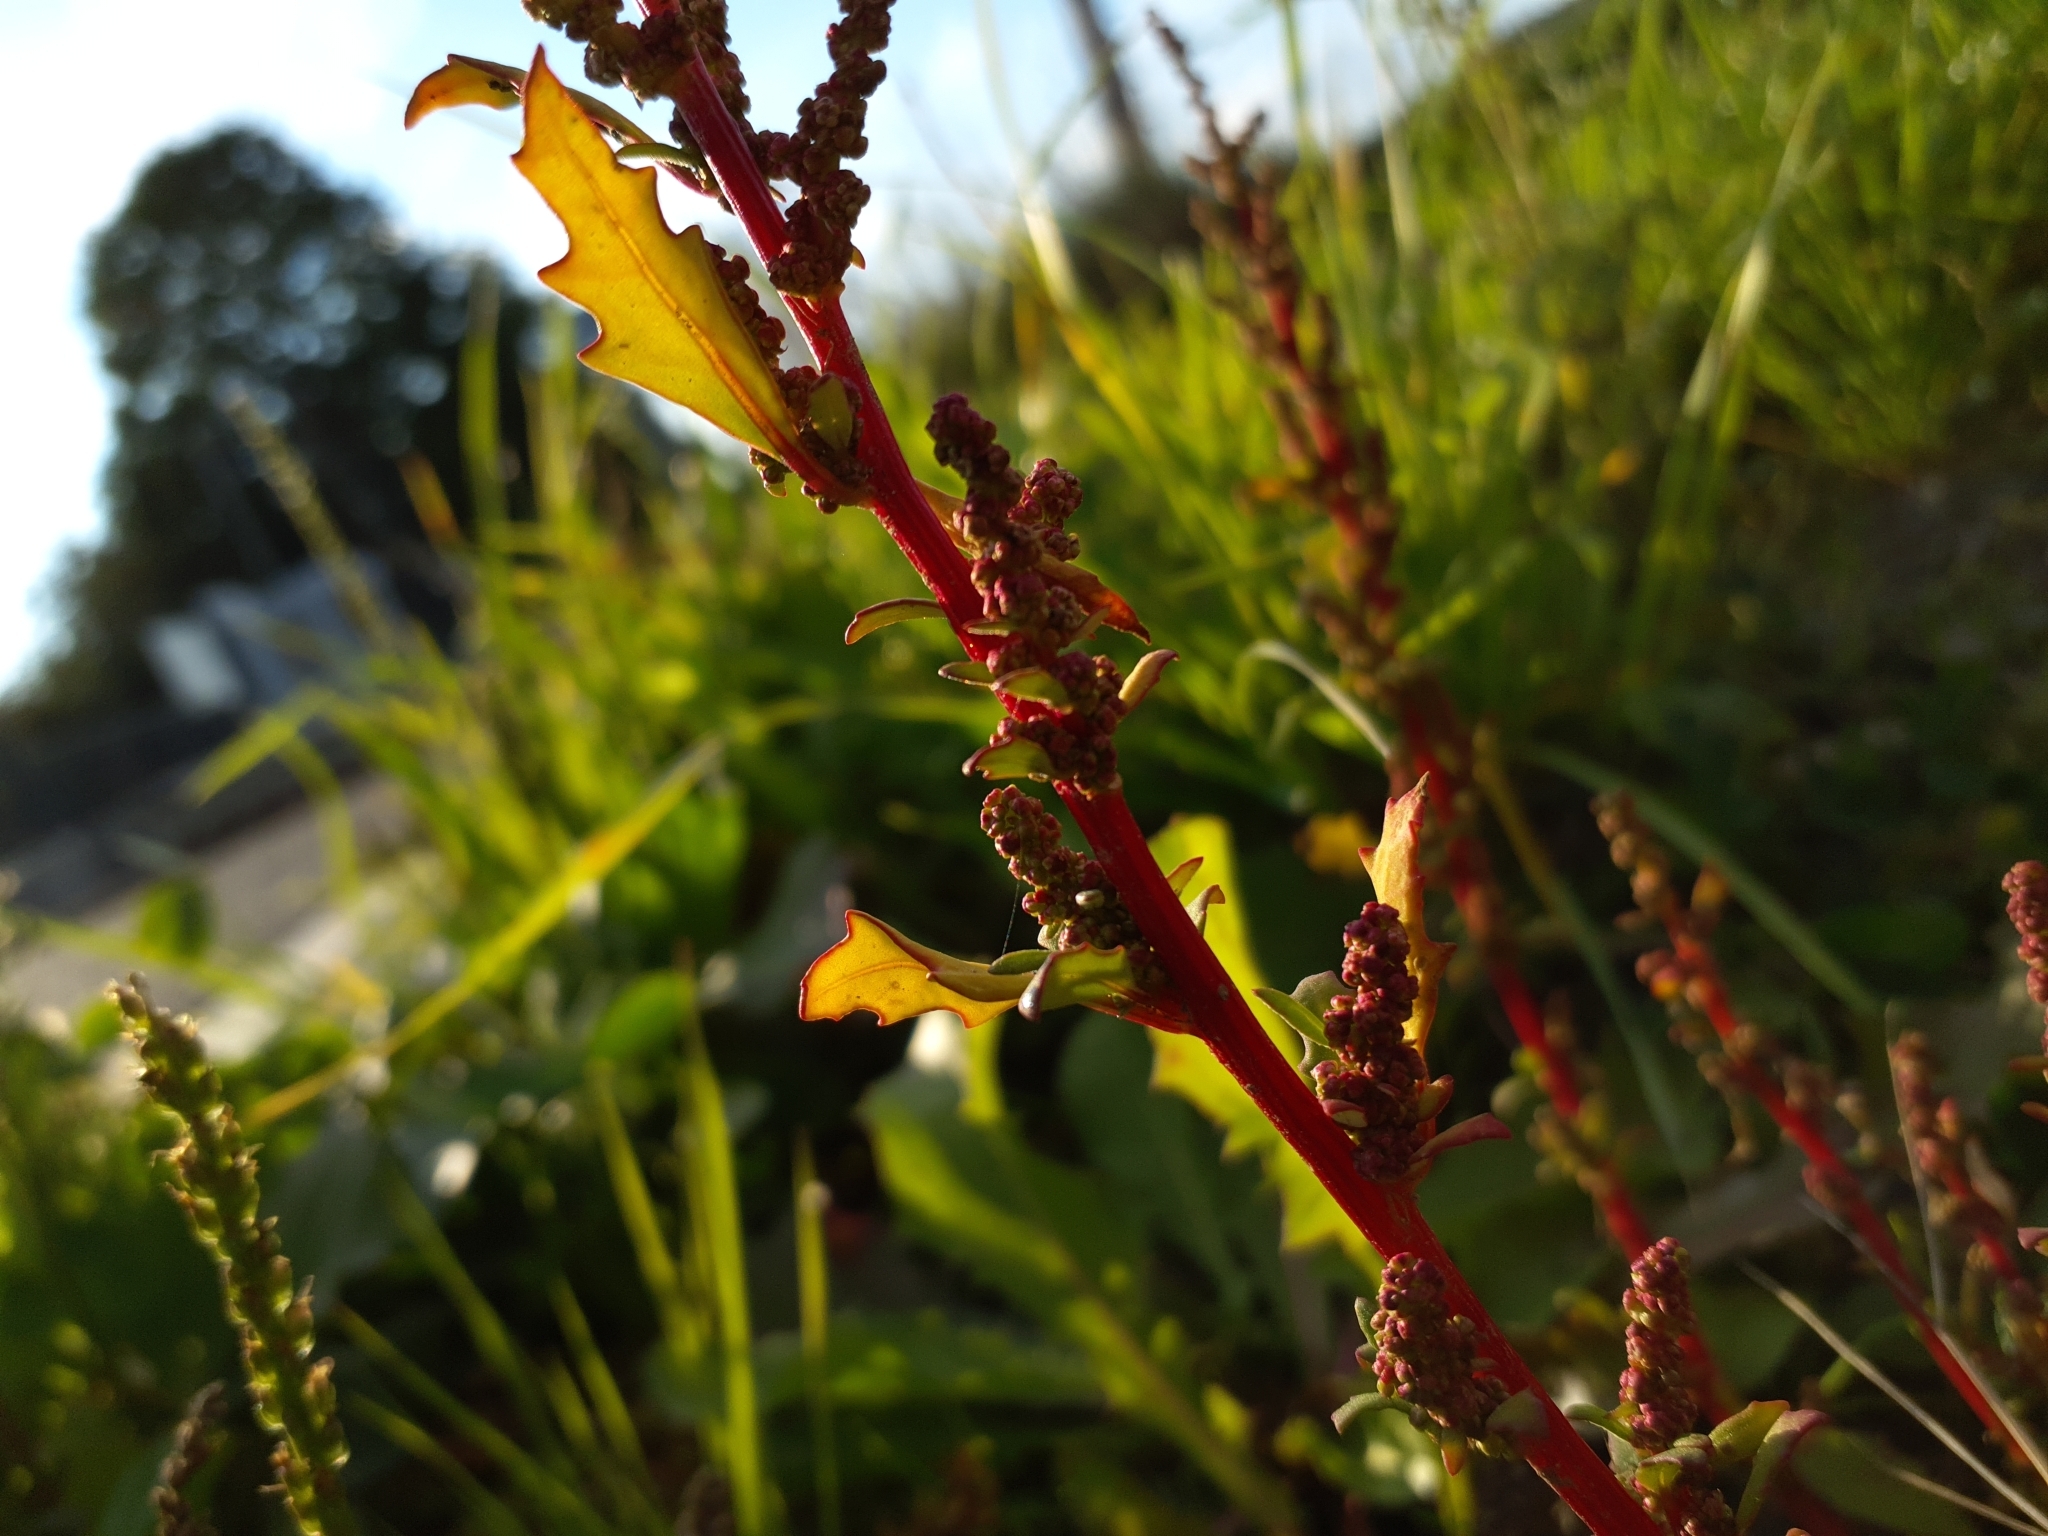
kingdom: Plantae
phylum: Tracheophyta
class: Magnoliopsida
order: Caryophyllales
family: Amaranthaceae
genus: Oxybasis
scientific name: Oxybasis glauca
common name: Glaucous goosefoot
